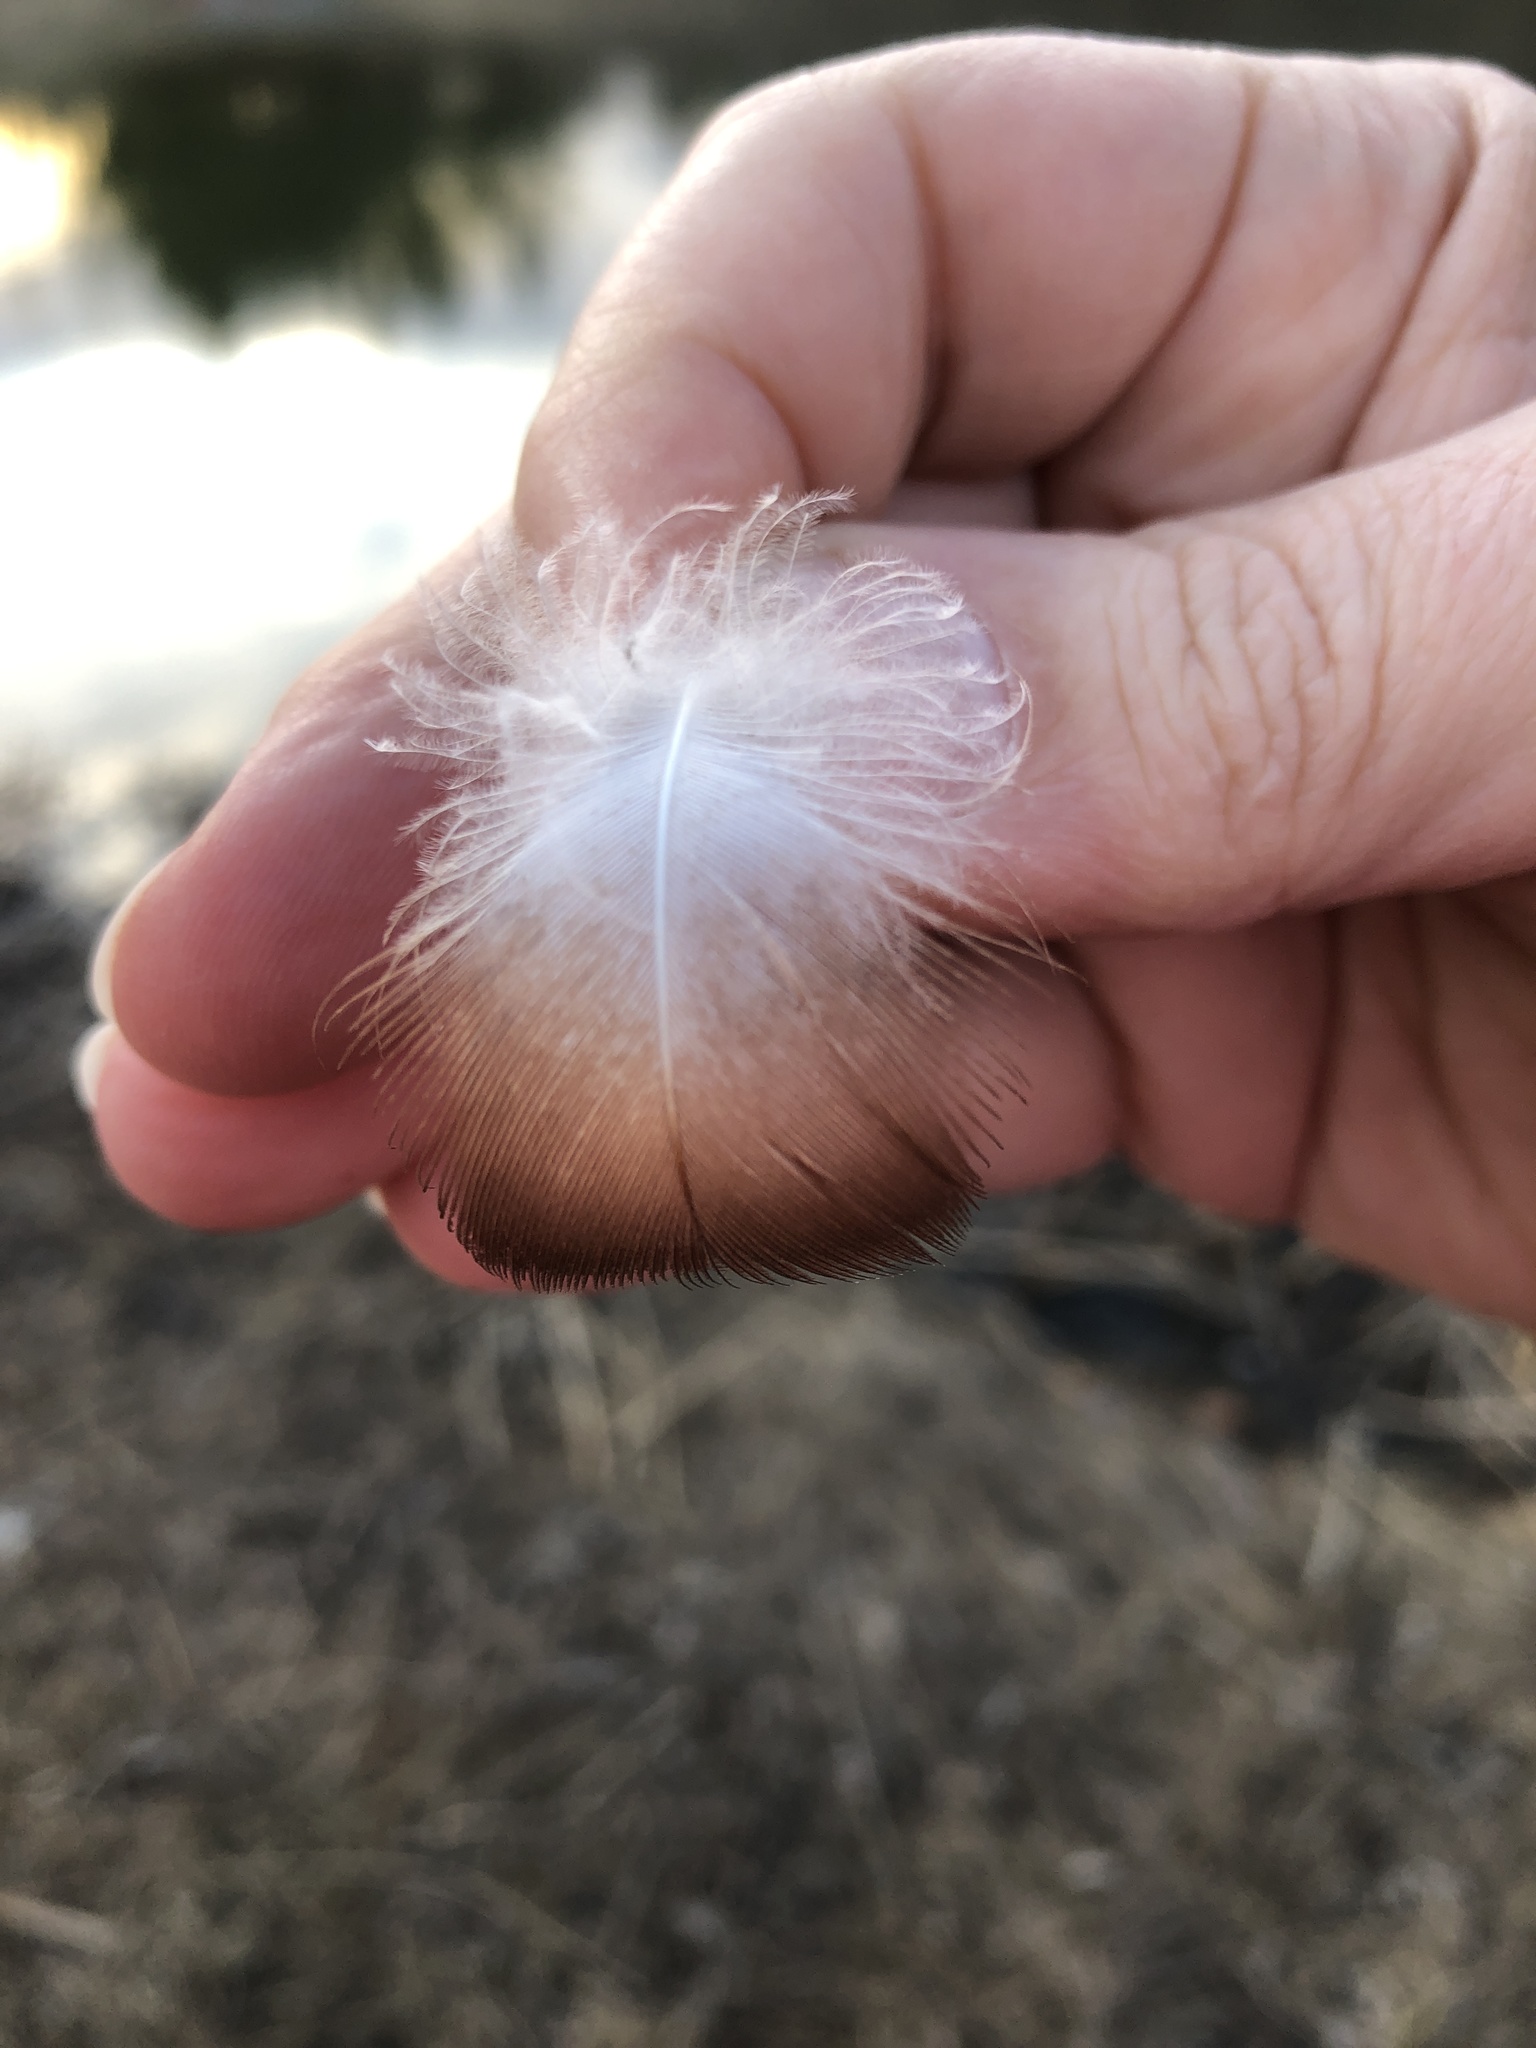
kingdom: Animalia
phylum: Chordata
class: Aves
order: Anseriformes
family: Anatidae
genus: Anas
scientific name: Anas platyrhynchos
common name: Mallard
